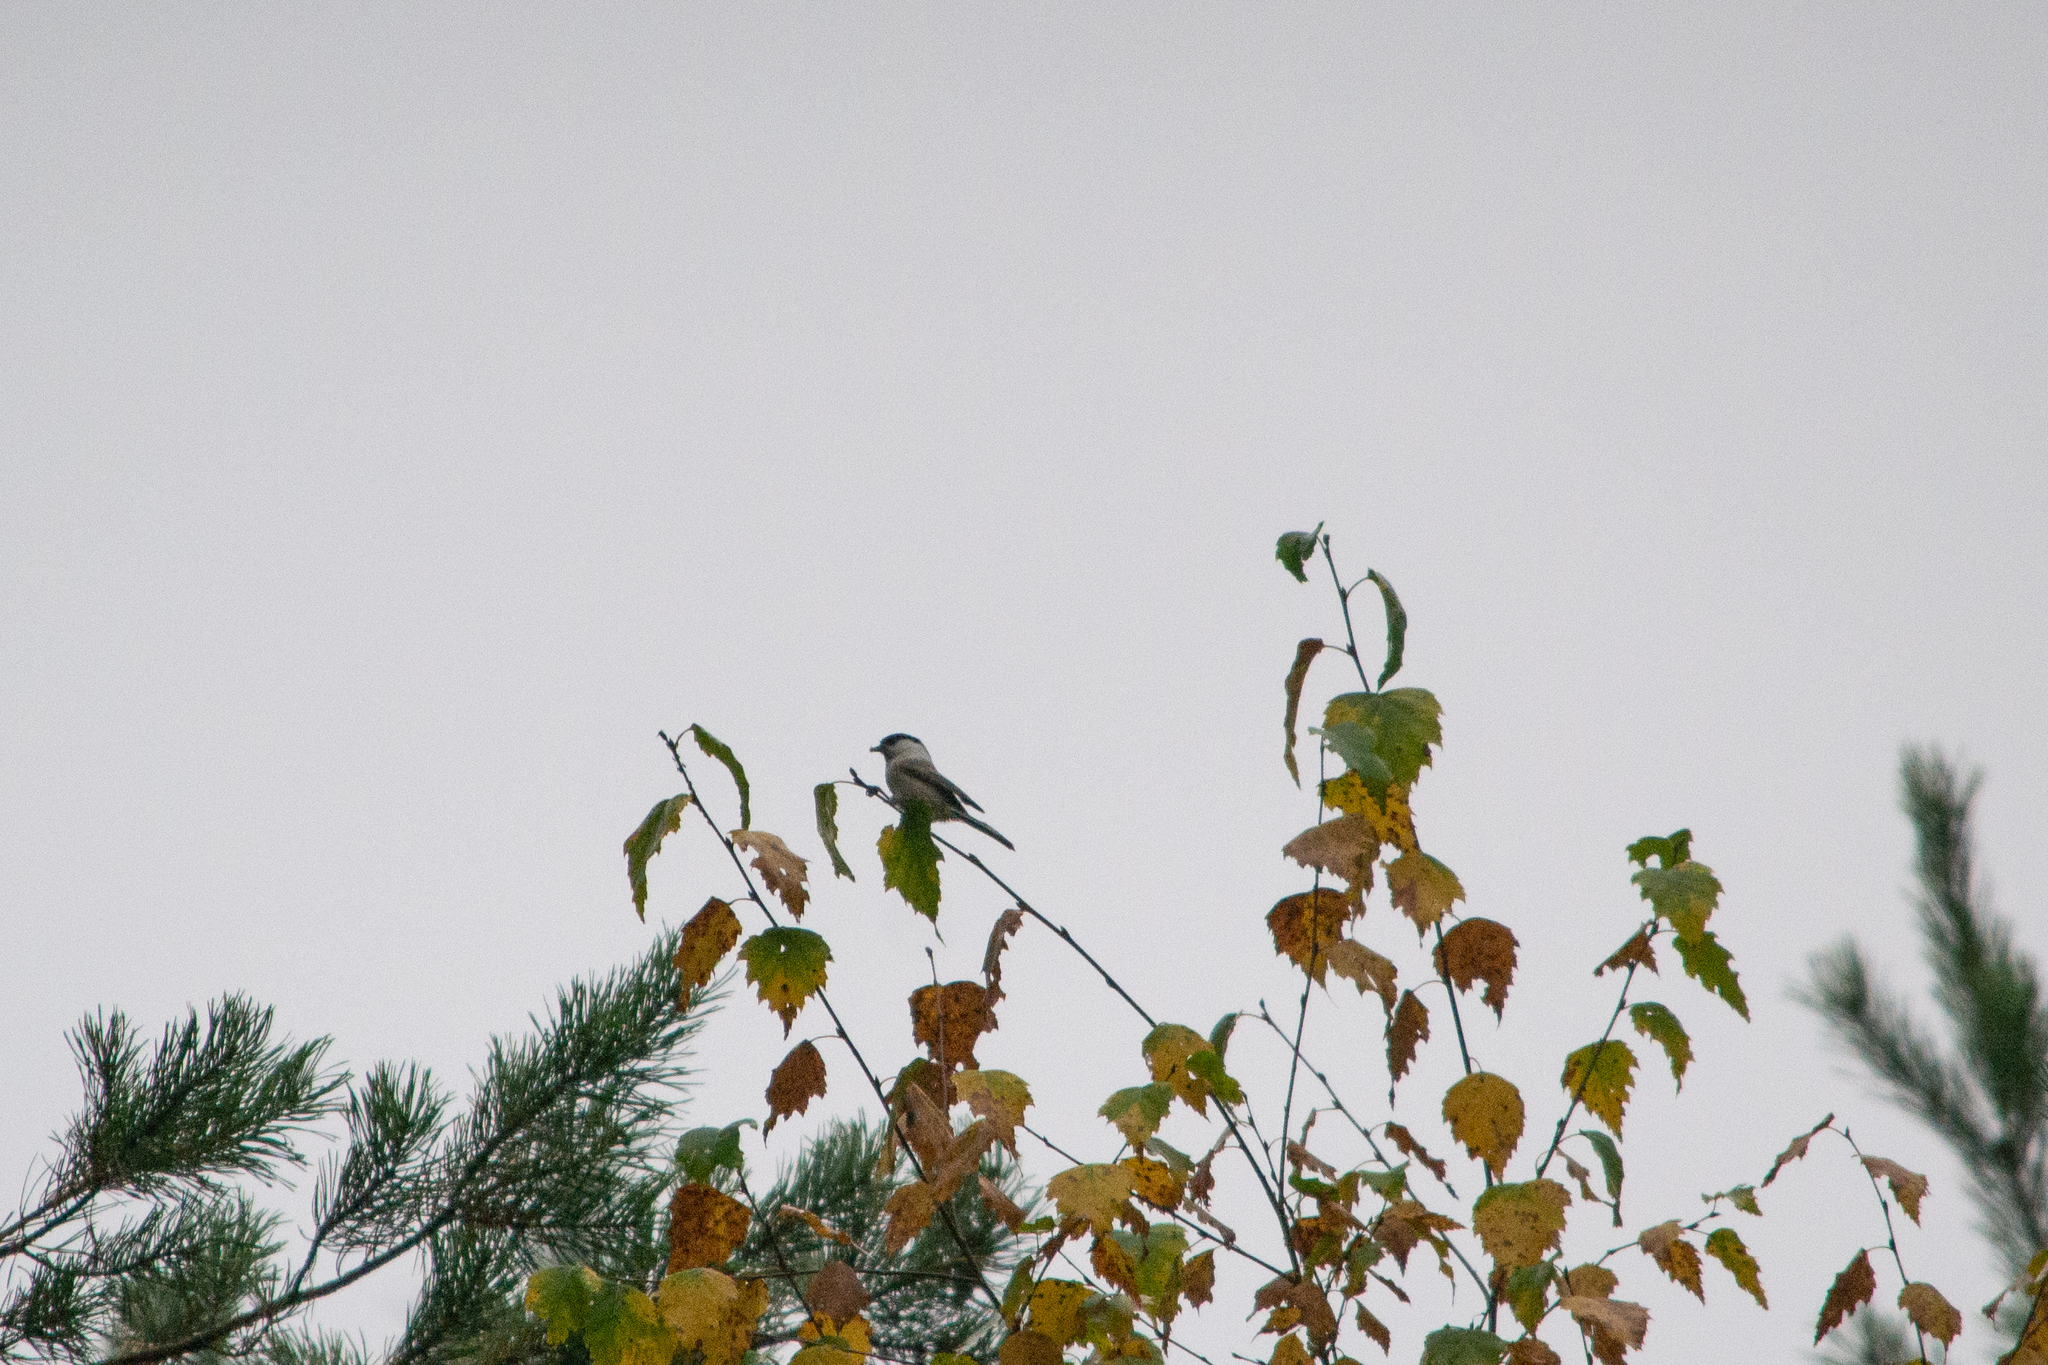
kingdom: Animalia
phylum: Chordata
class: Aves
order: Passeriformes
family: Paridae
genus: Poecile
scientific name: Poecile montanus
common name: Willow tit
